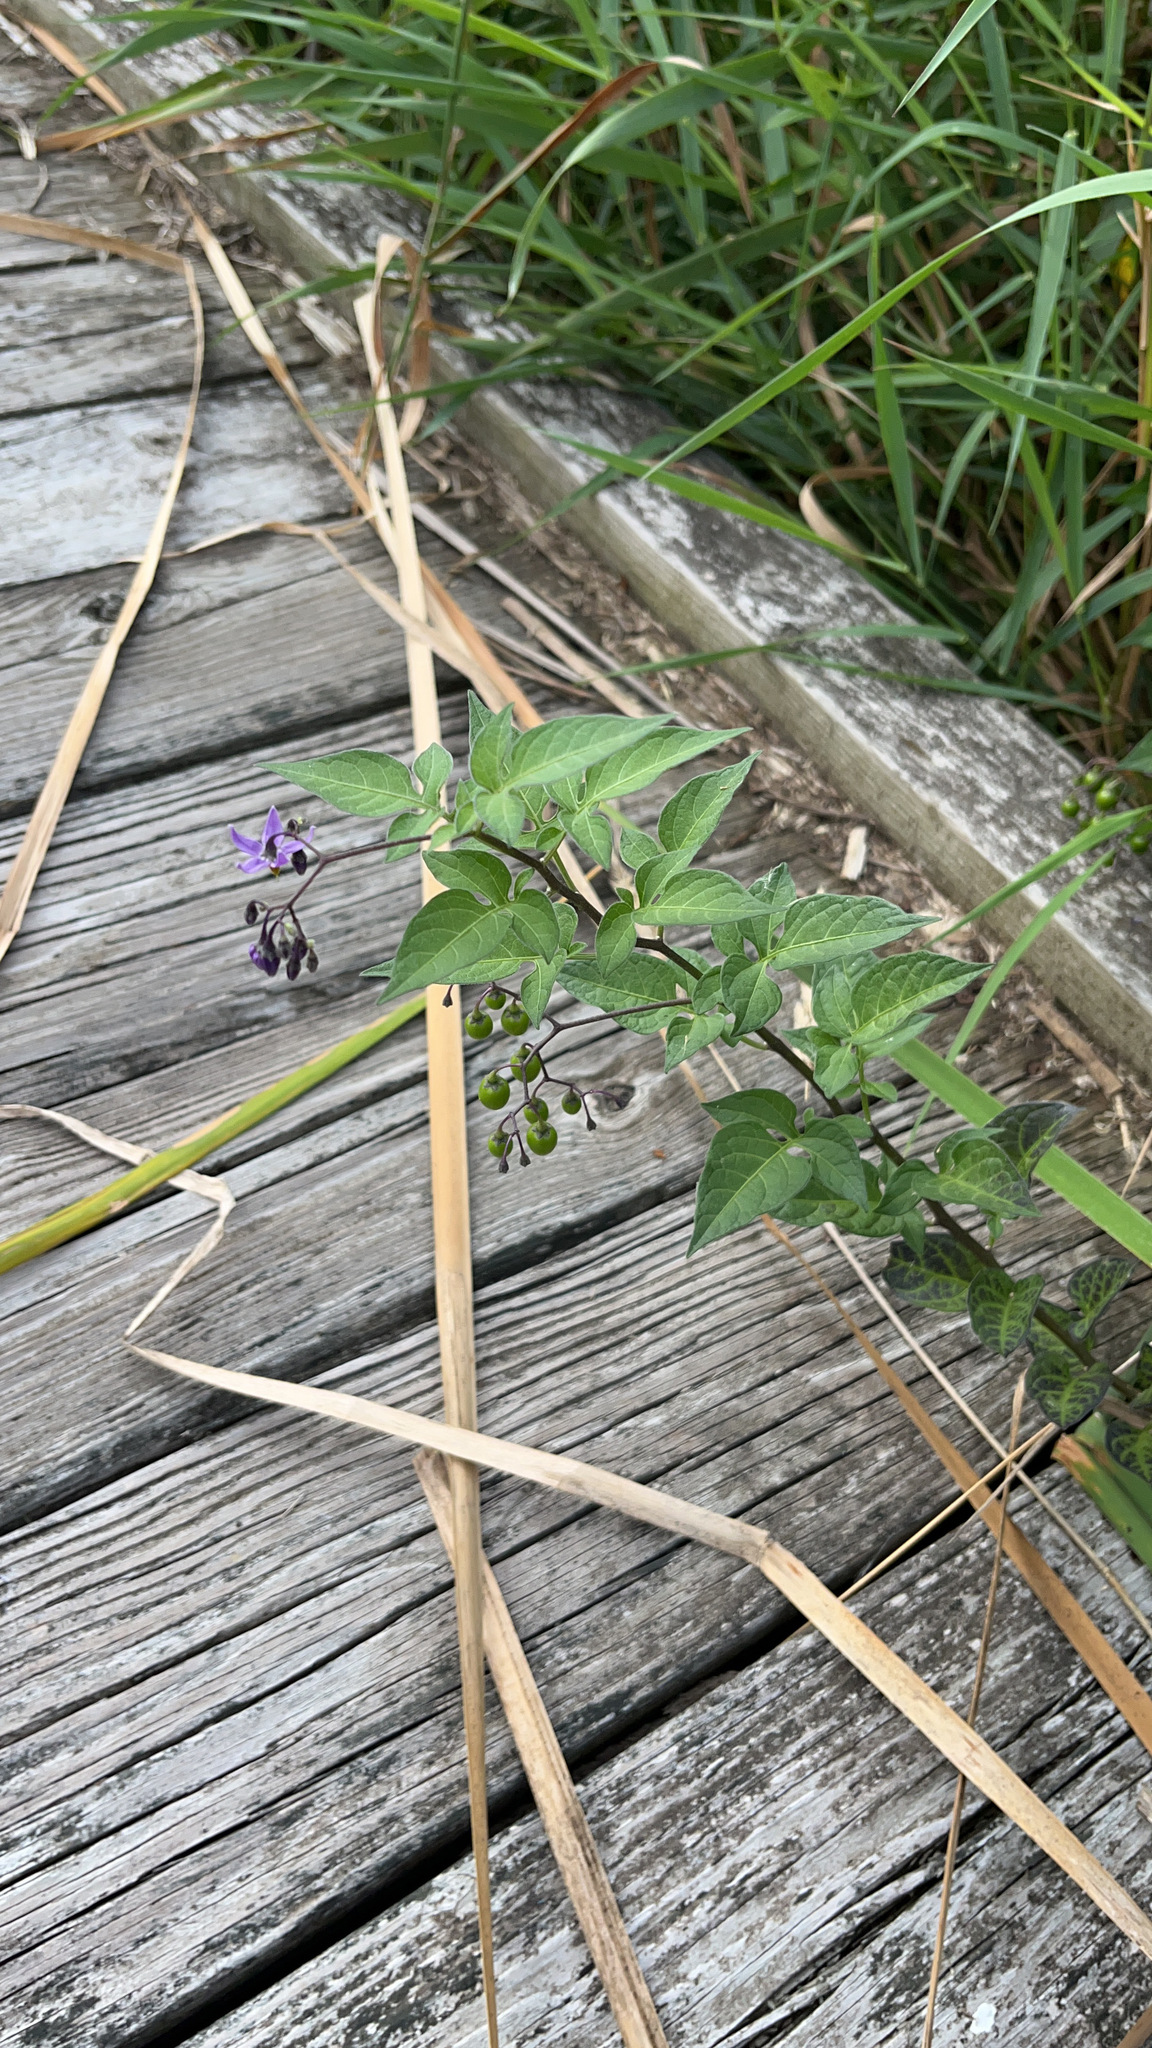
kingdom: Plantae
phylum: Tracheophyta
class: Magnoliopsida
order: Solanales
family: Solanaceae
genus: Solanum
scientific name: Solanum dulcamara
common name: Climbing nightshade
